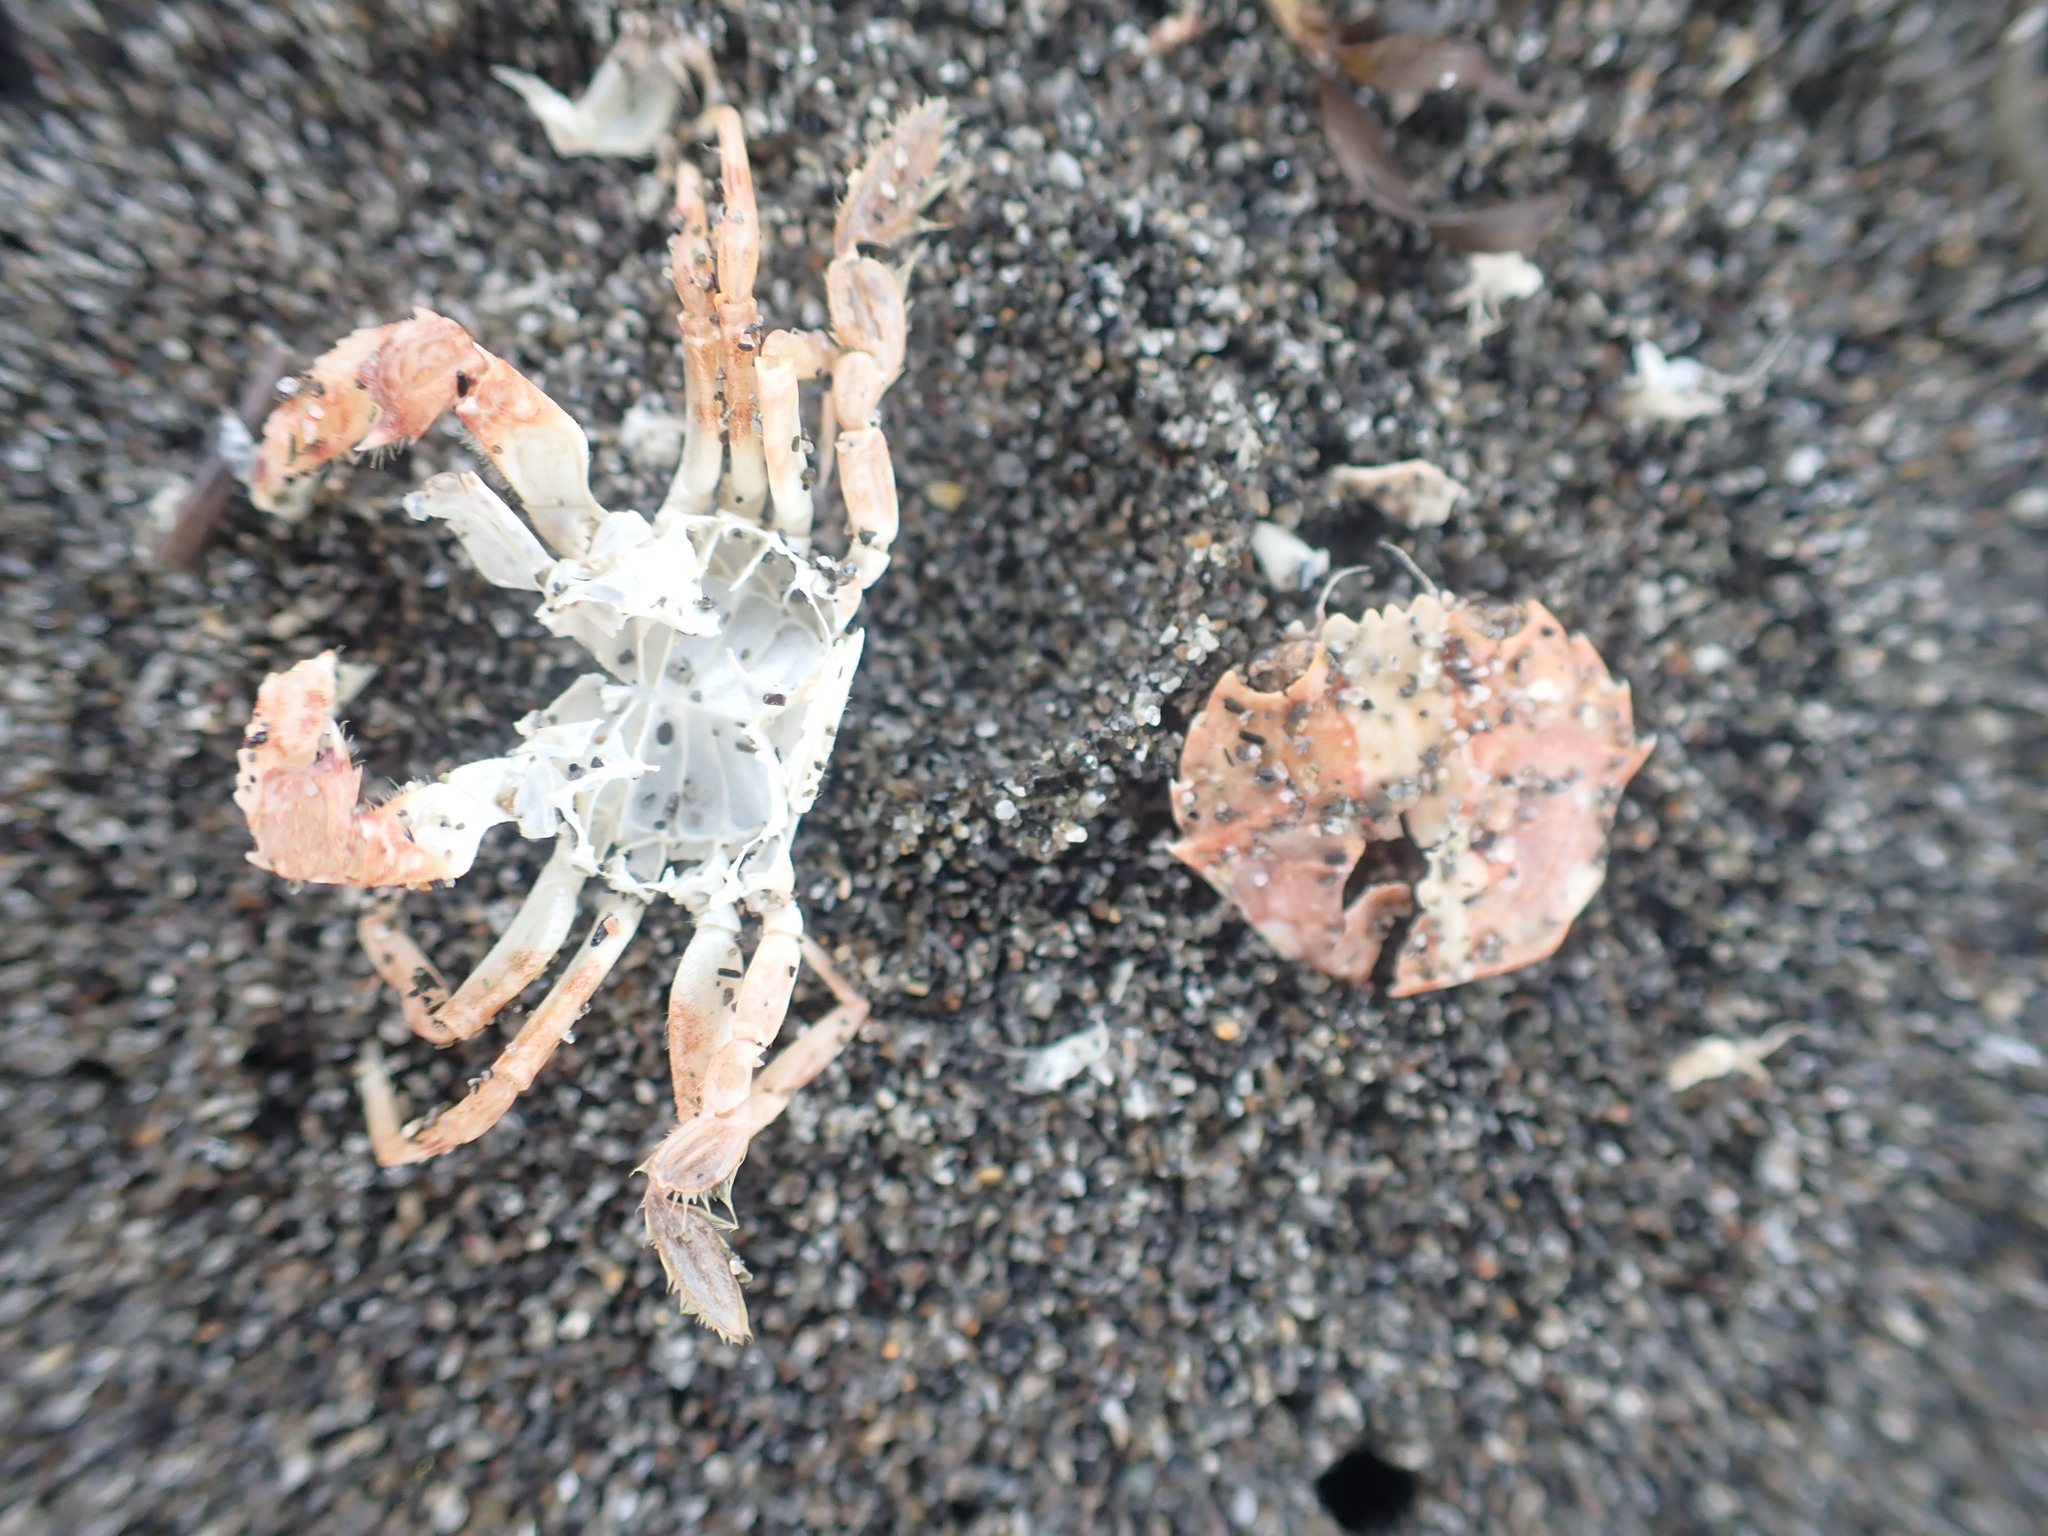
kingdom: Animalia
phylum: Arthropoda
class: Malacostraca
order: Decapoda
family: Geryonidae
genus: Nectocarcinus
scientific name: Nectocarcinus antarcticus
